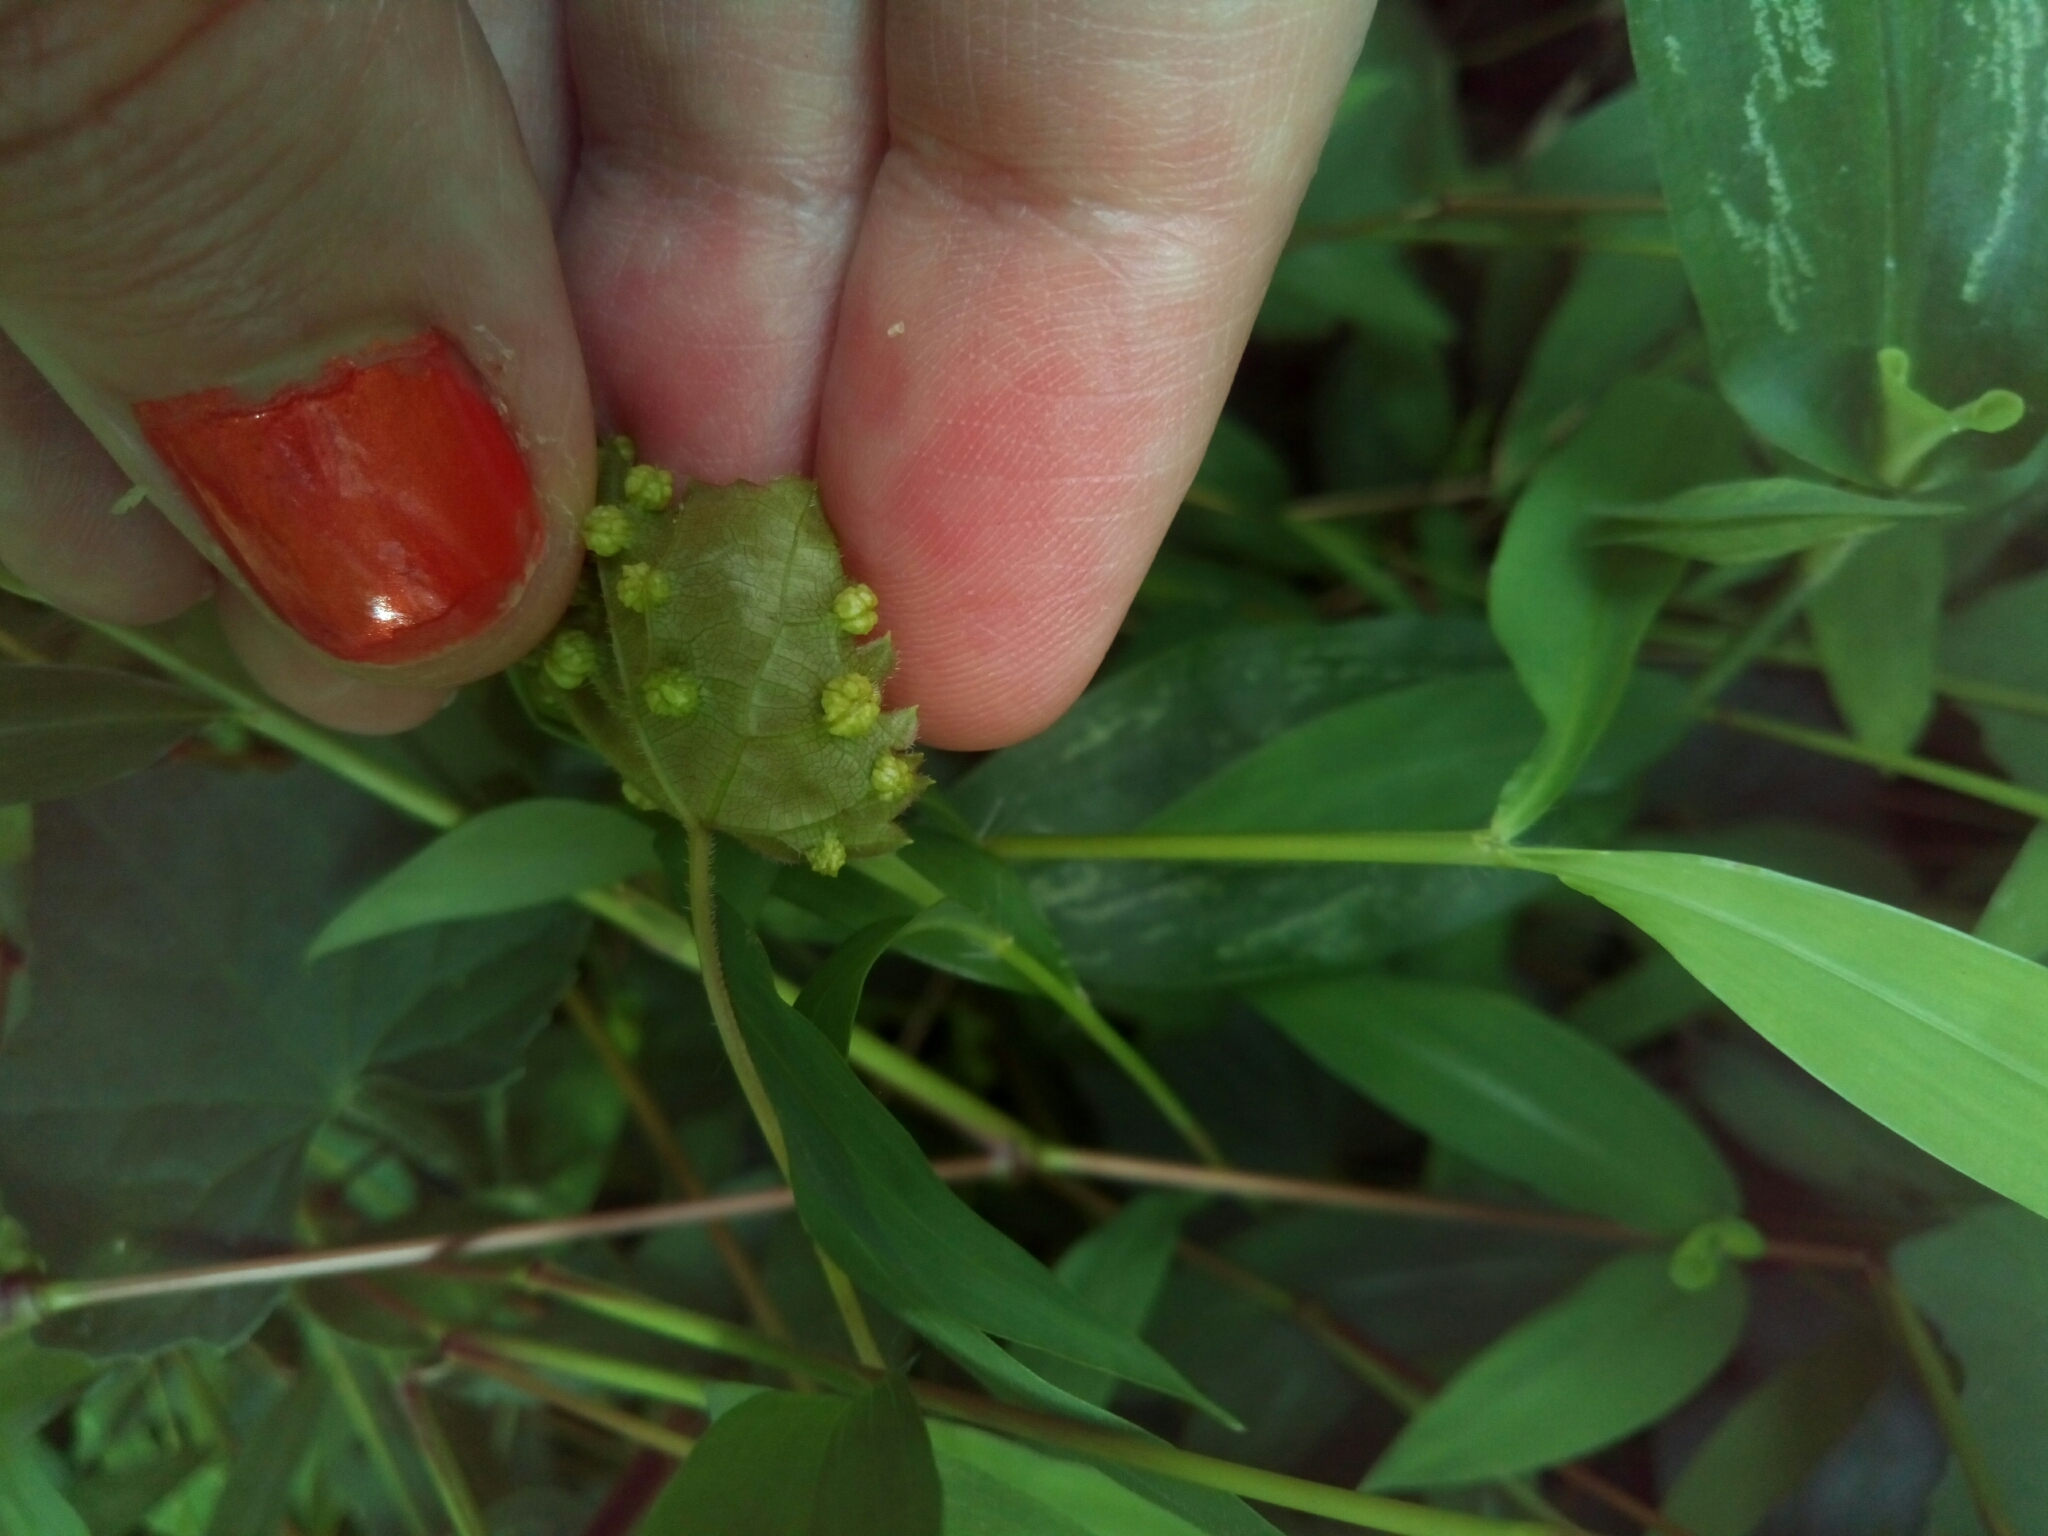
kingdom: Animalia
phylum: Arthropoda
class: Insecta
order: Hemiptera
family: Phylloxeridae
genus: Daktulosphaira
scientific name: Daktulosphaira vitifoliae
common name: Grape phylloxera
